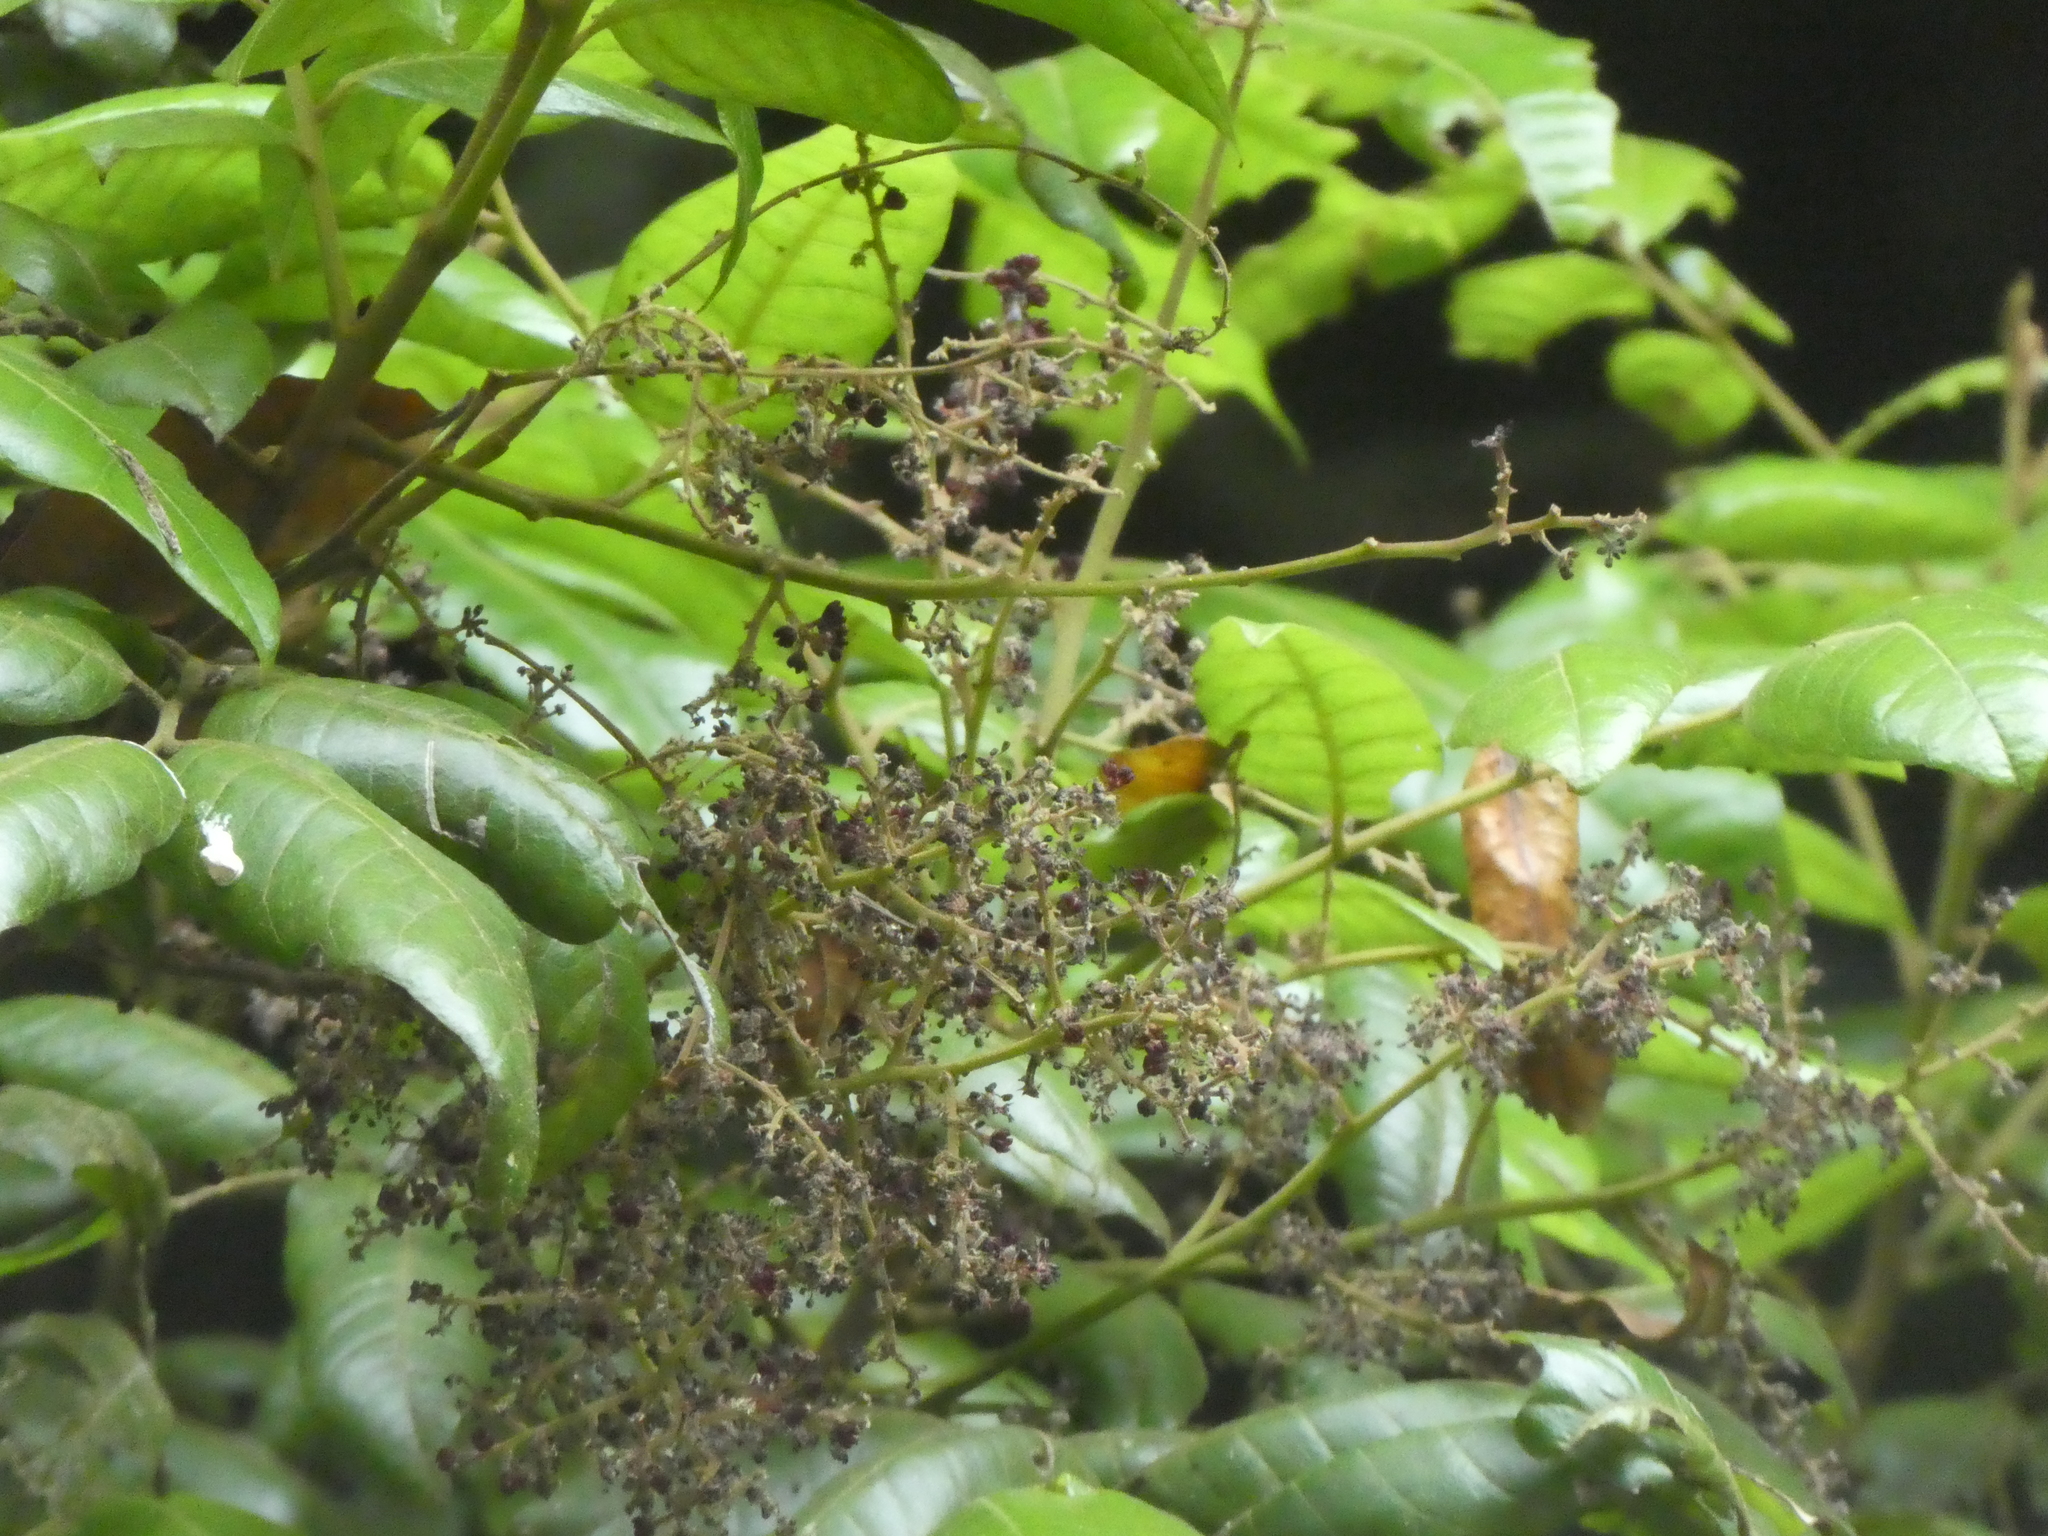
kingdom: Plantae
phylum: Tracheophyta
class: Magnoliopsida
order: Sapindales
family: Sapindaceae
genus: Alectryon
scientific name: Alectryon excelsus
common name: Three kings titoki
